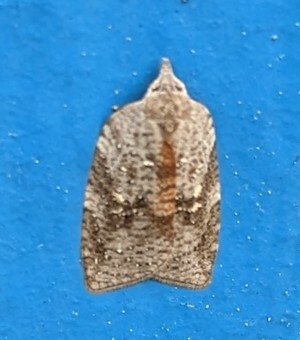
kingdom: Animalia
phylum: Arthropoda
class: Insecta
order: Lepidoptera
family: Tortricidae
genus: Amorbia
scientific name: Amorbia humerosana
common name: White-lined leafroller moth
